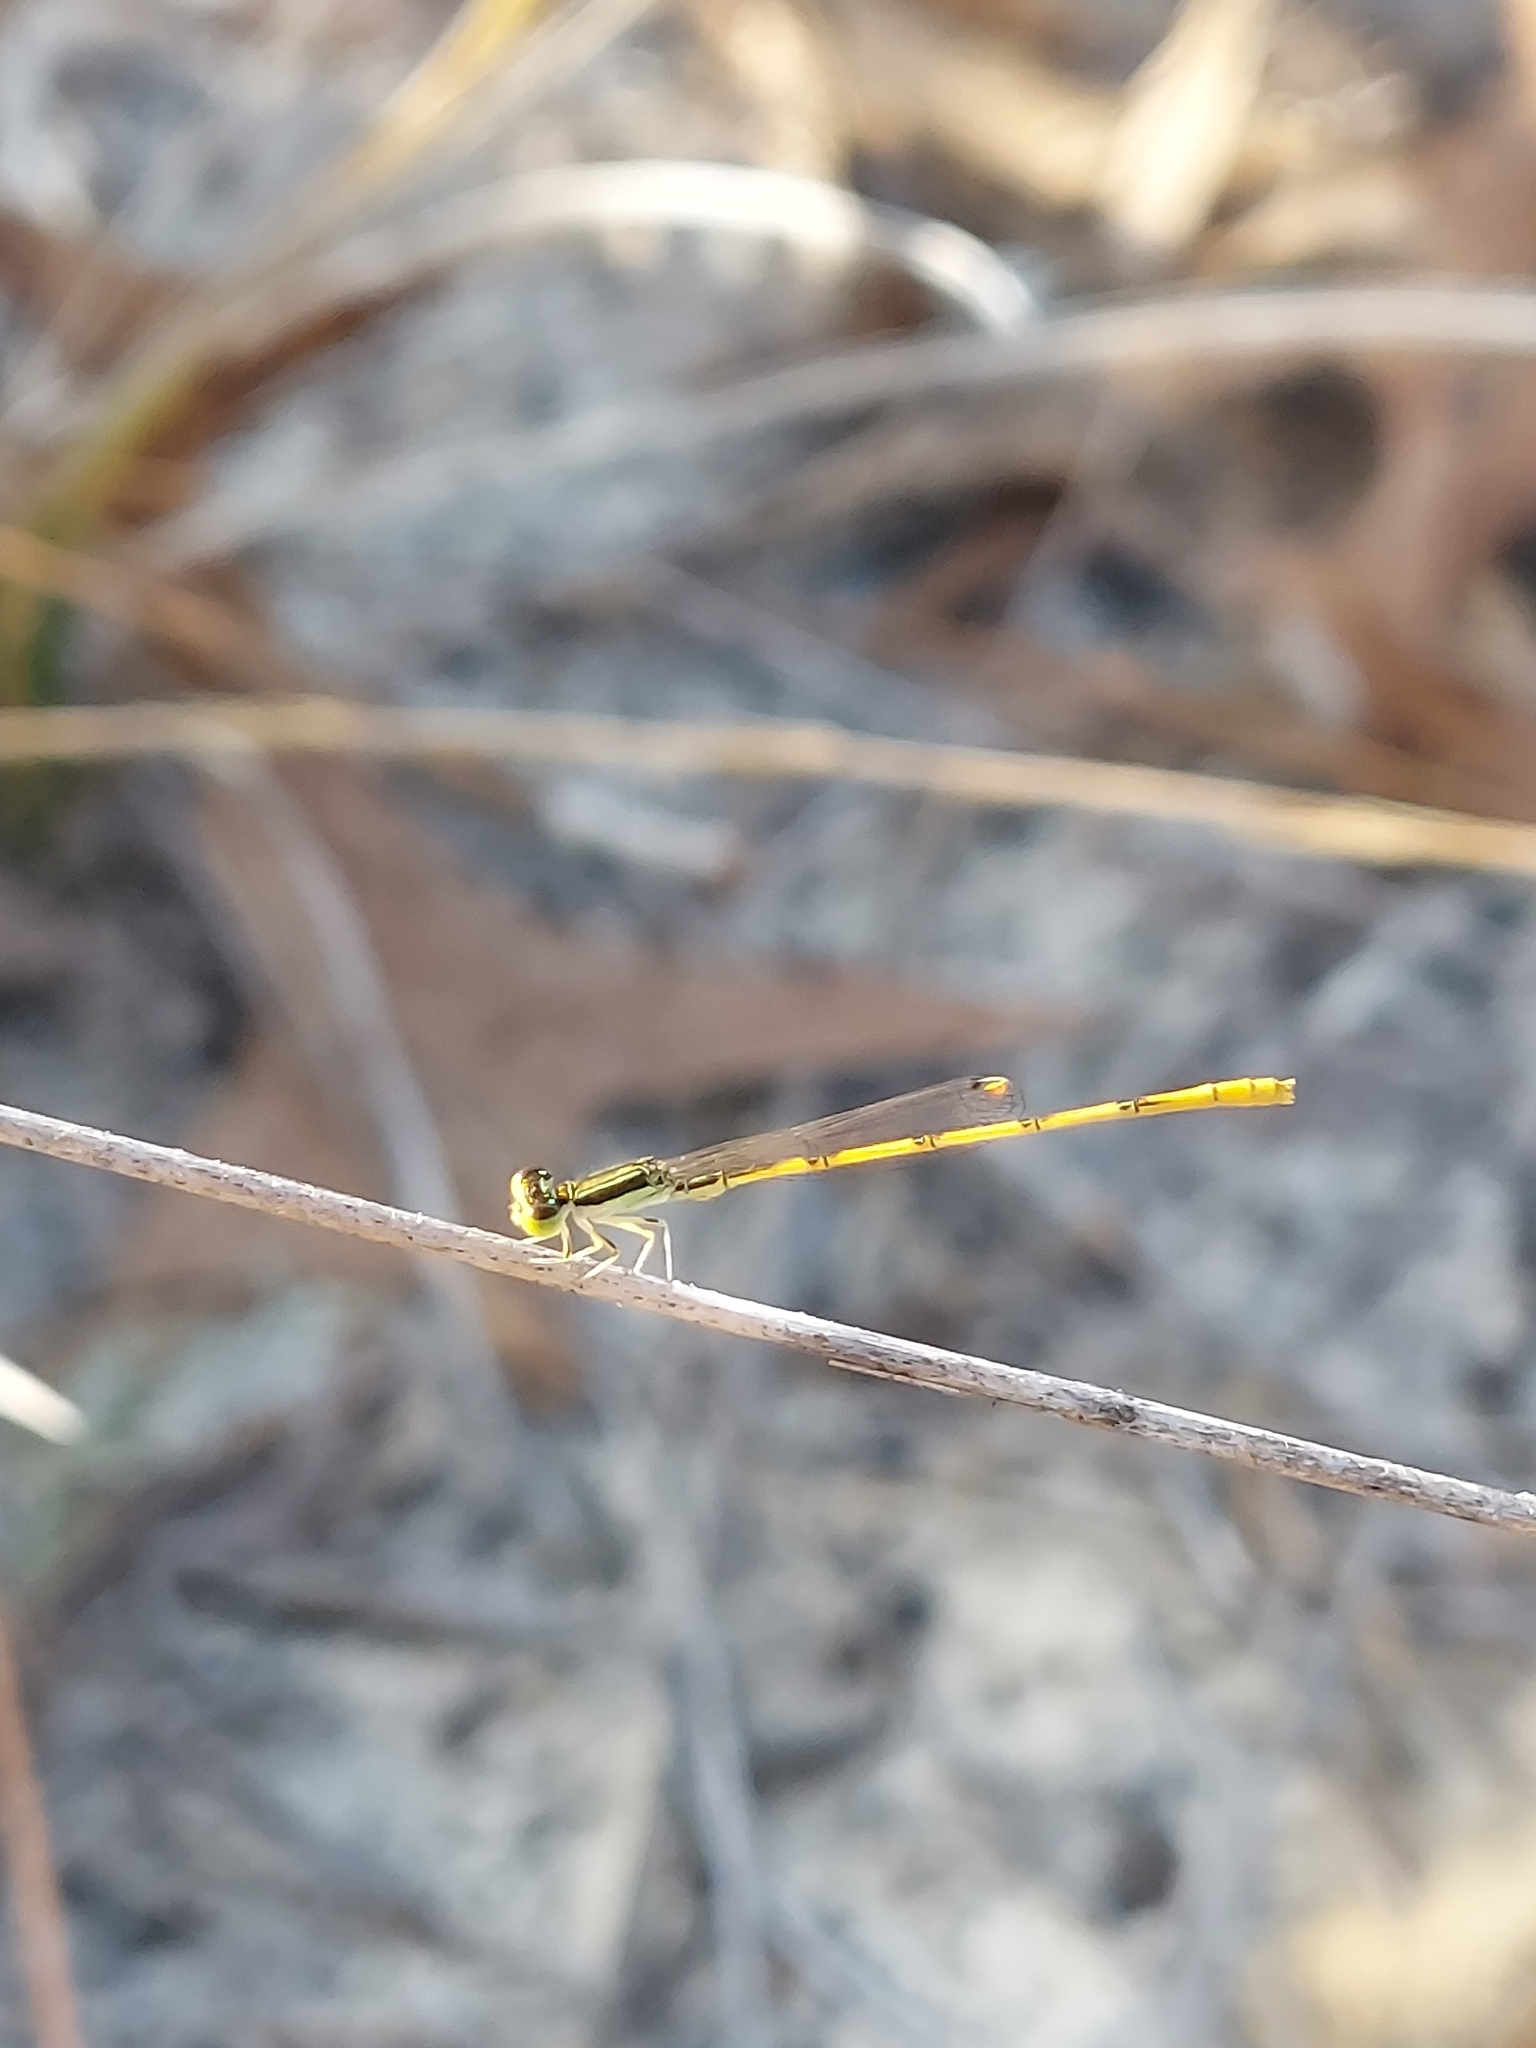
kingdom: Animalia
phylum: Arthropoda
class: Insecta
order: Odonata
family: Coenagrionidae
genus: Ischnura
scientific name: Ischnura hastata
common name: Citrine forktail
